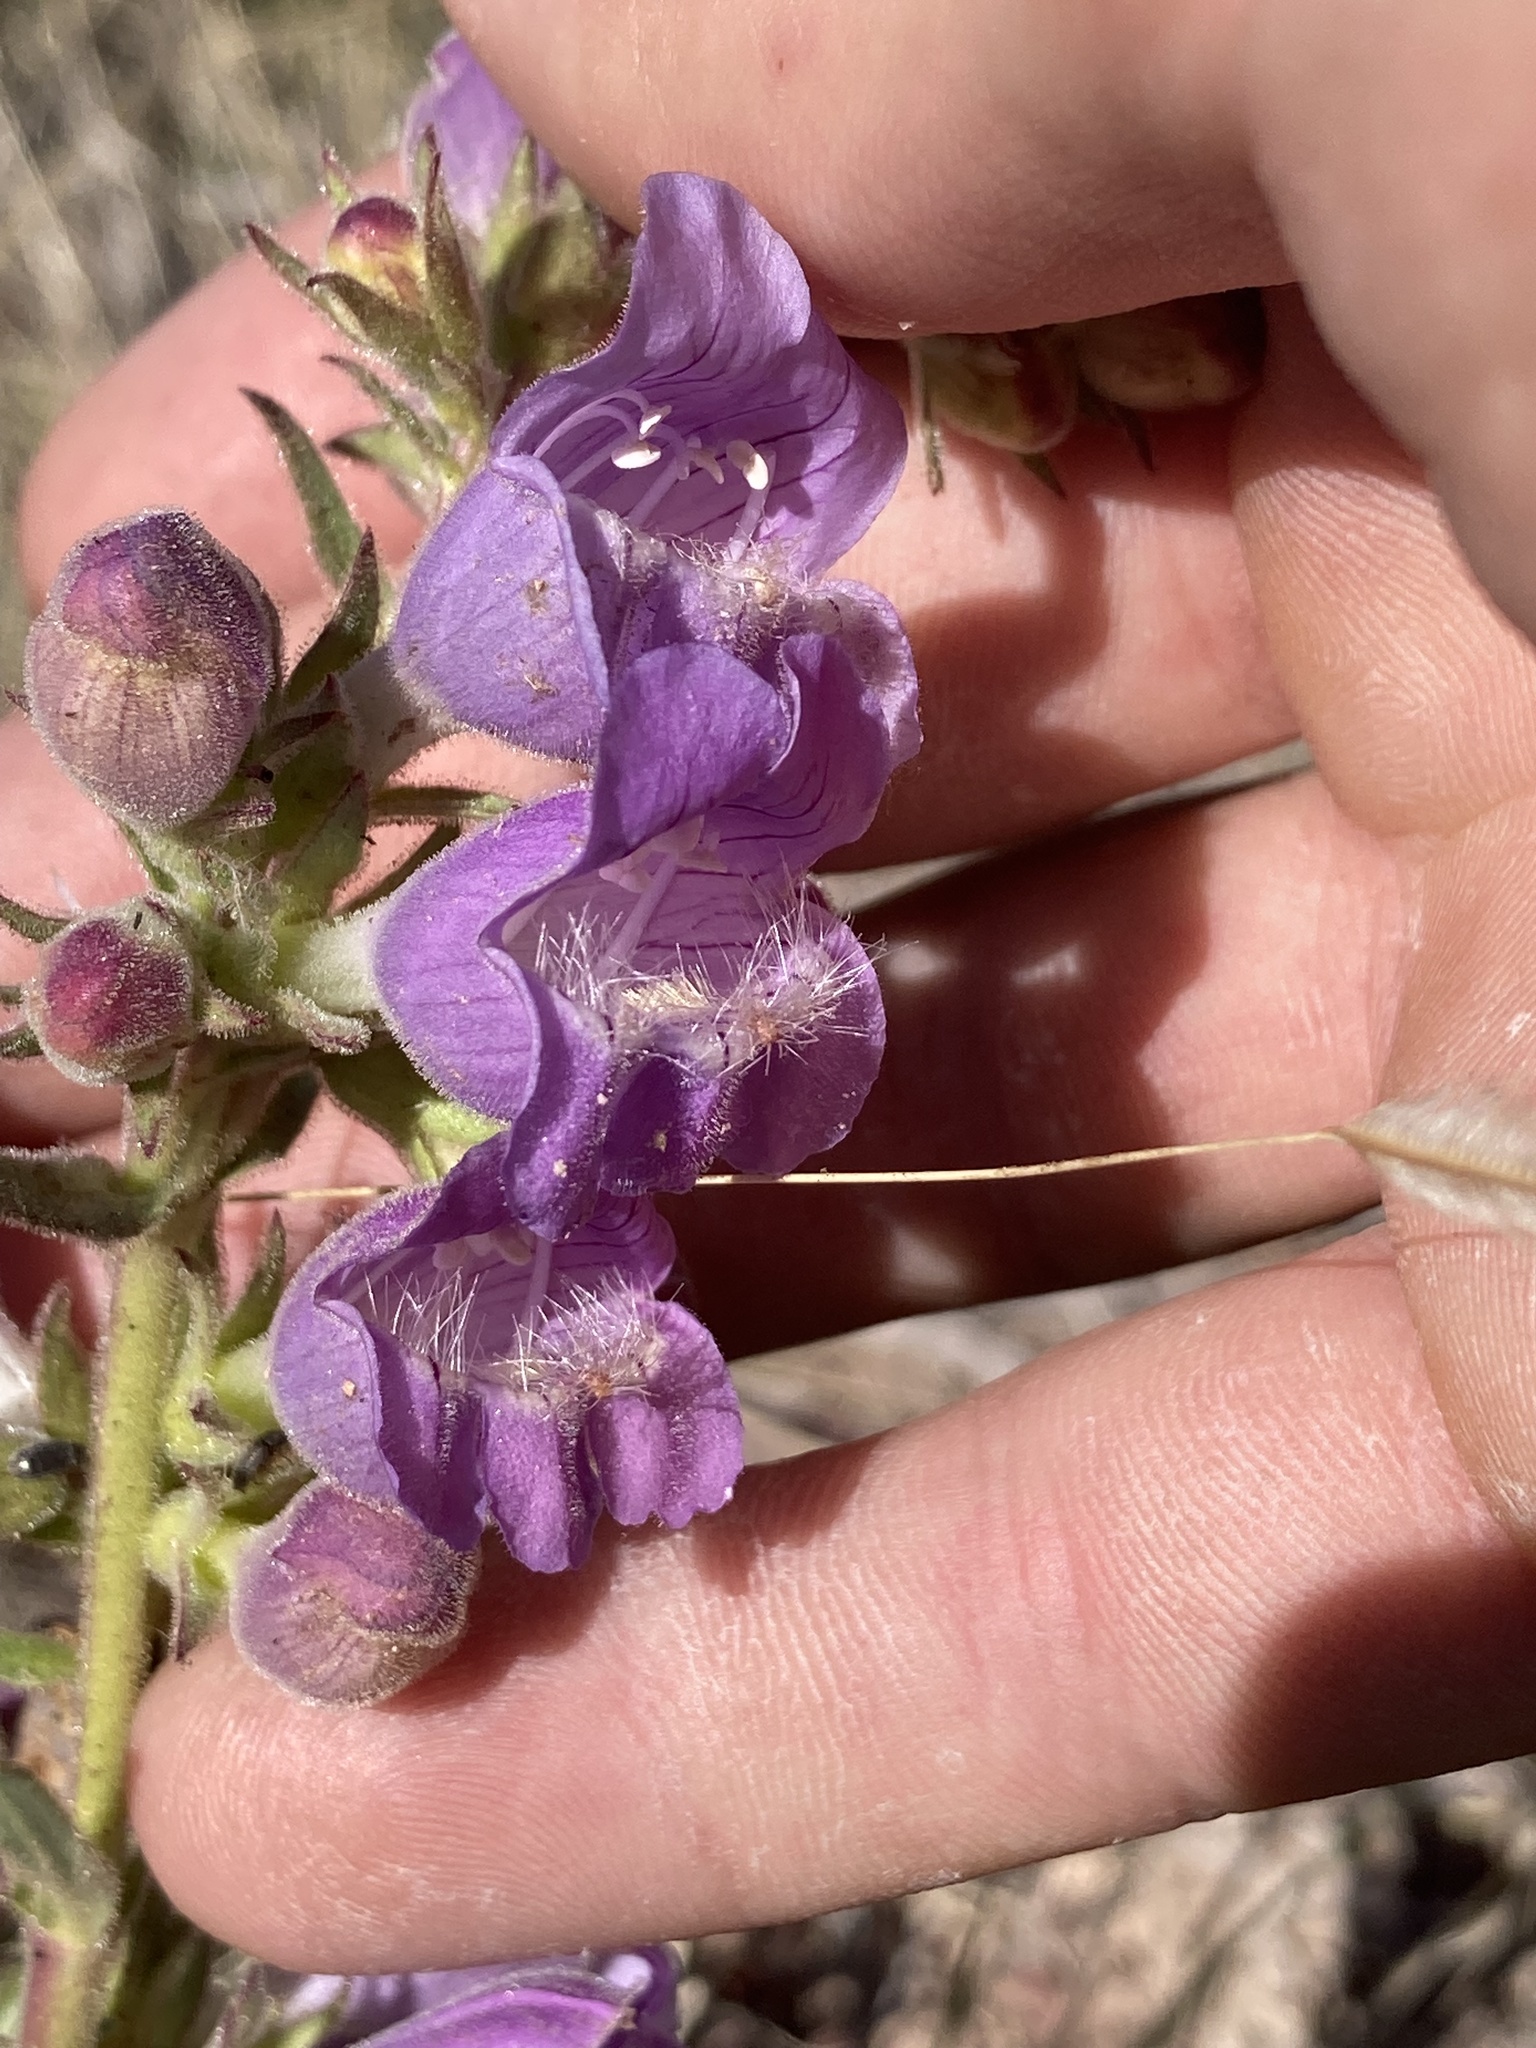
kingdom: Plantae
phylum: Tracheophyta
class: Magnoliopsida
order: Lamiales
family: Plantaginaceae
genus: Penstemon
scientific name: Penstemon ophianthus
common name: Arizona beardtongue
